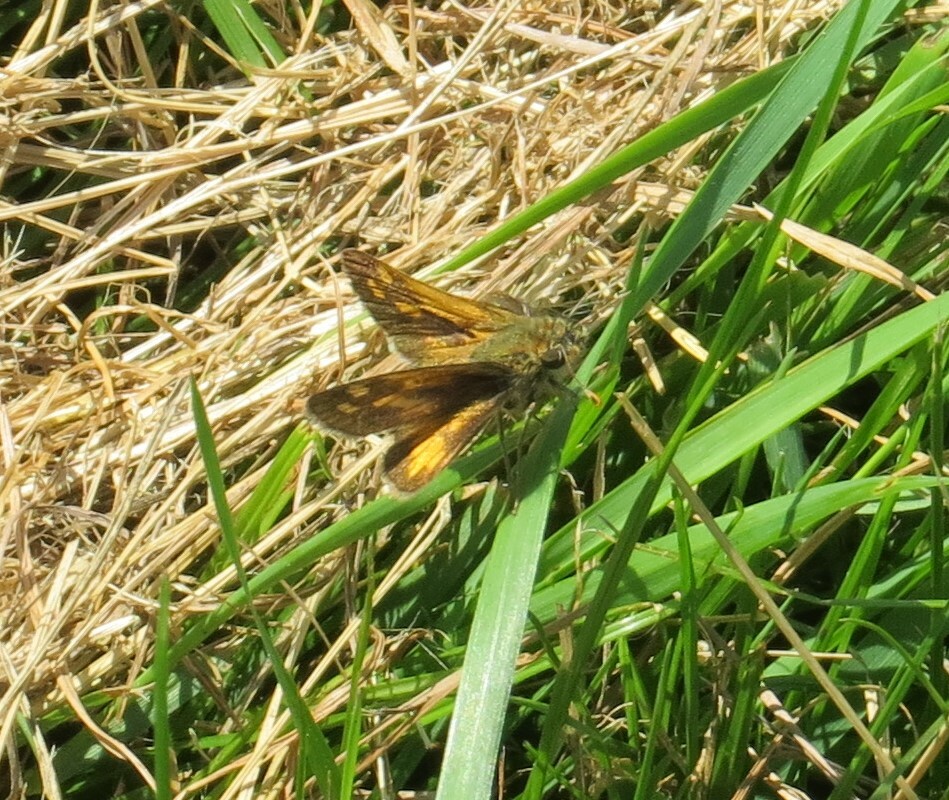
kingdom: Animalia
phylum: Arthropoda
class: Insecta
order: Lepidoptera
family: Hesperiidae
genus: Polites
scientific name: Polites coras
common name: Peck's skipper
